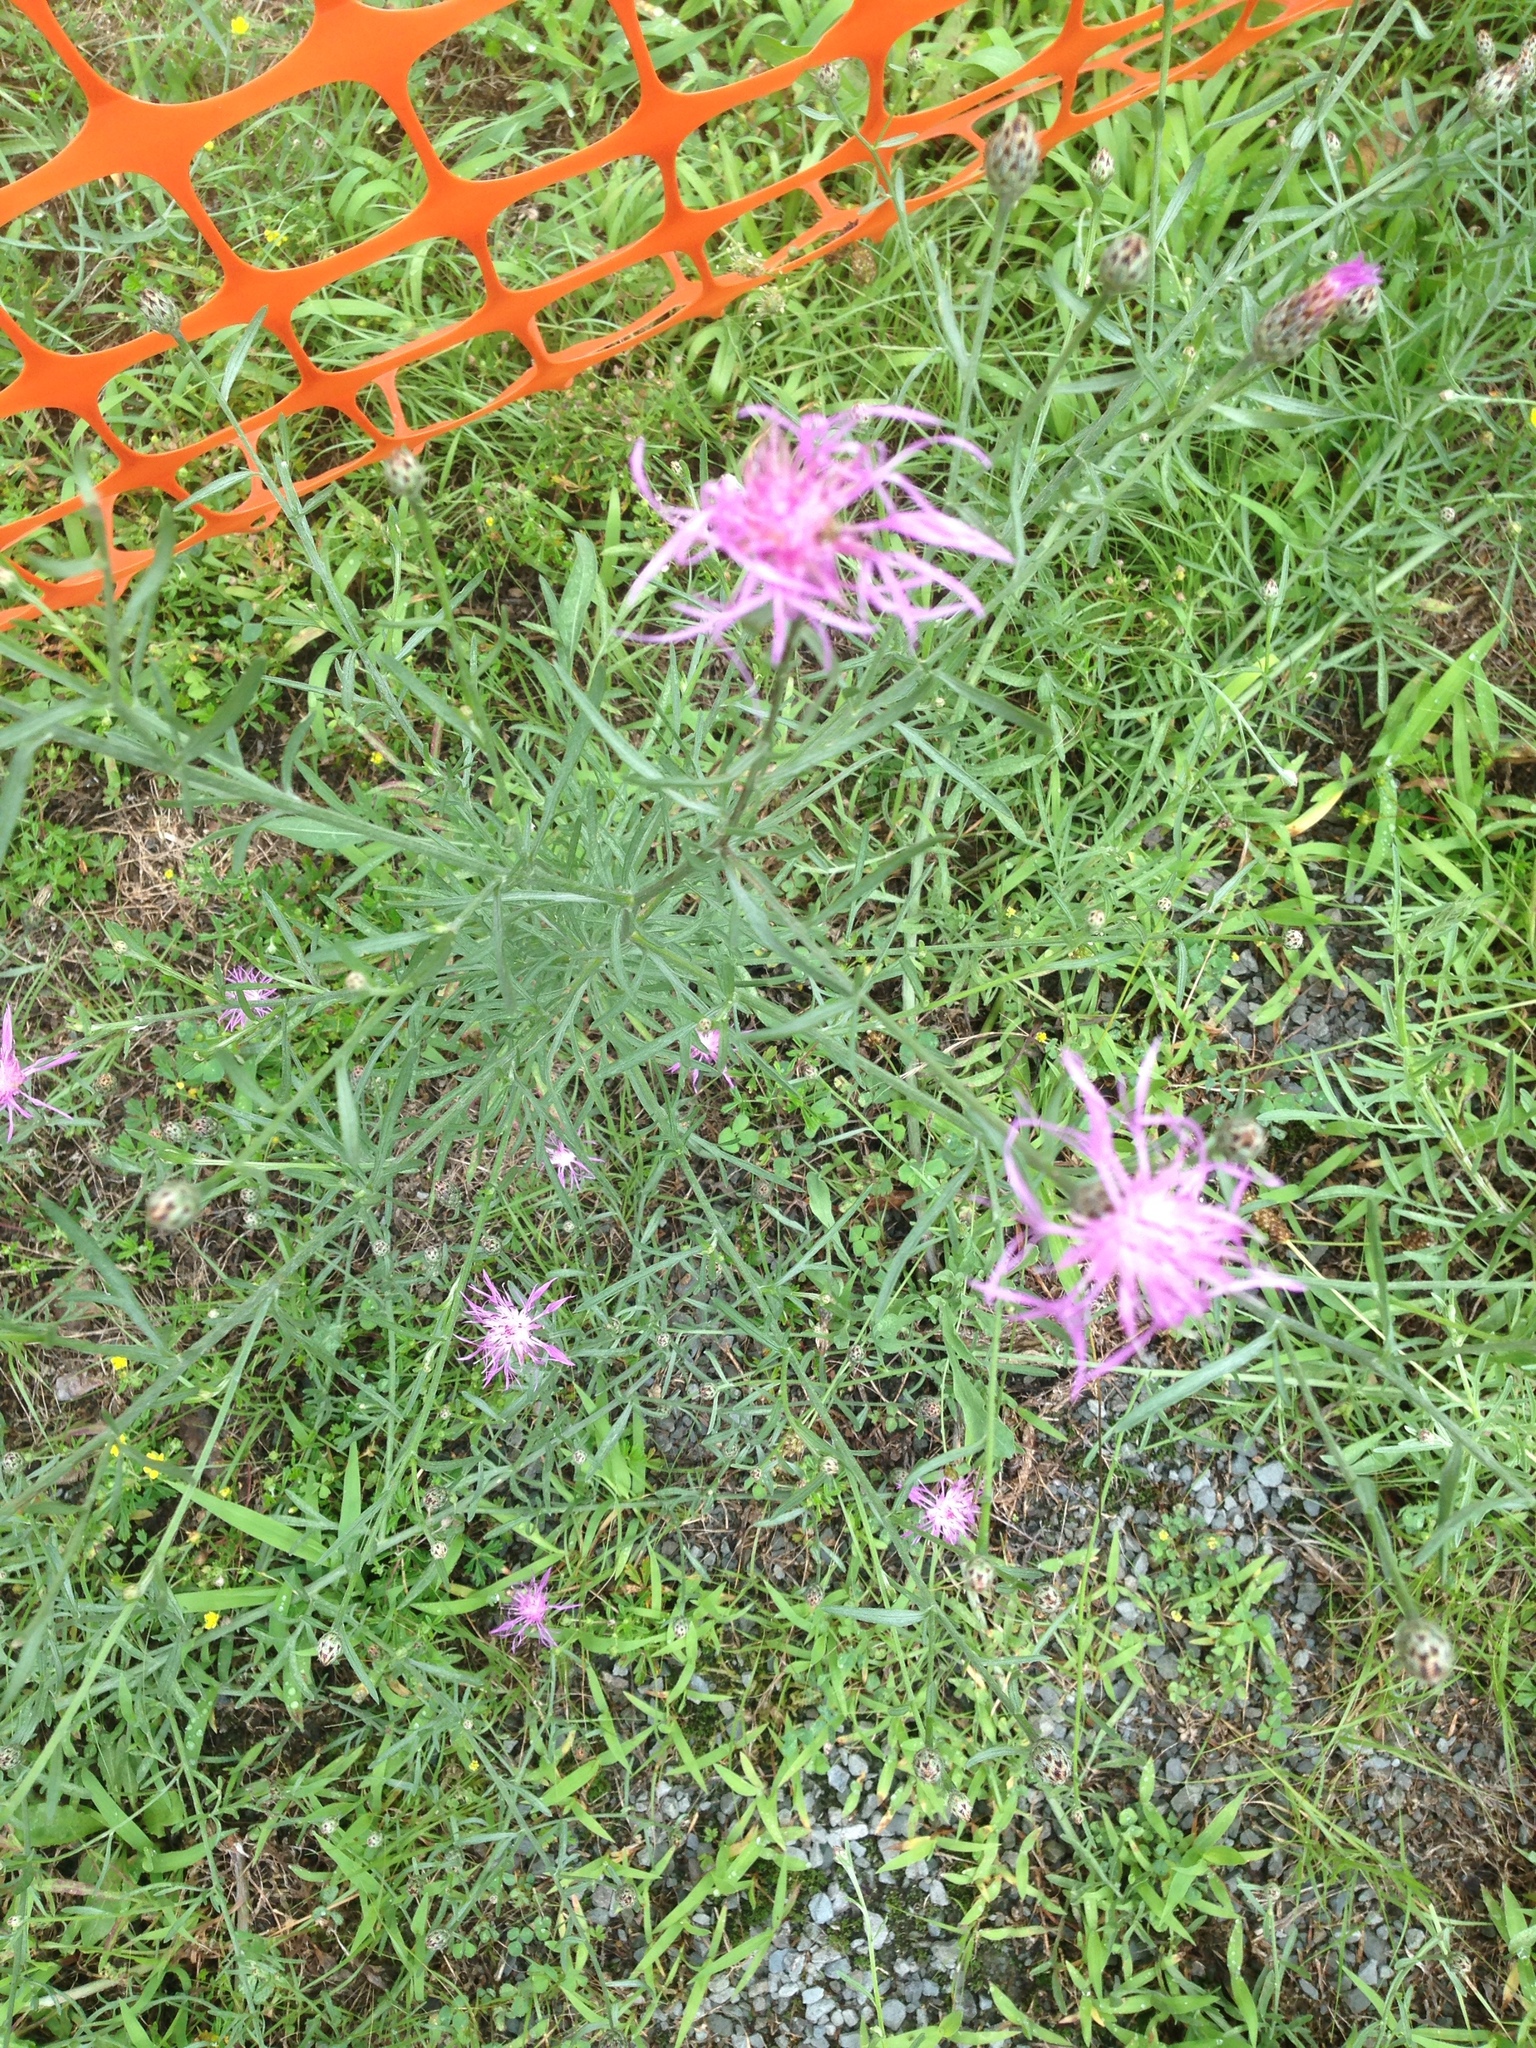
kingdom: Plantae
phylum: Tracheophyta
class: Magnoliopsida
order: Asterales
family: Asteraceae
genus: Centaurea
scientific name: Centaurea stoebe
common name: Spotted knapweed
